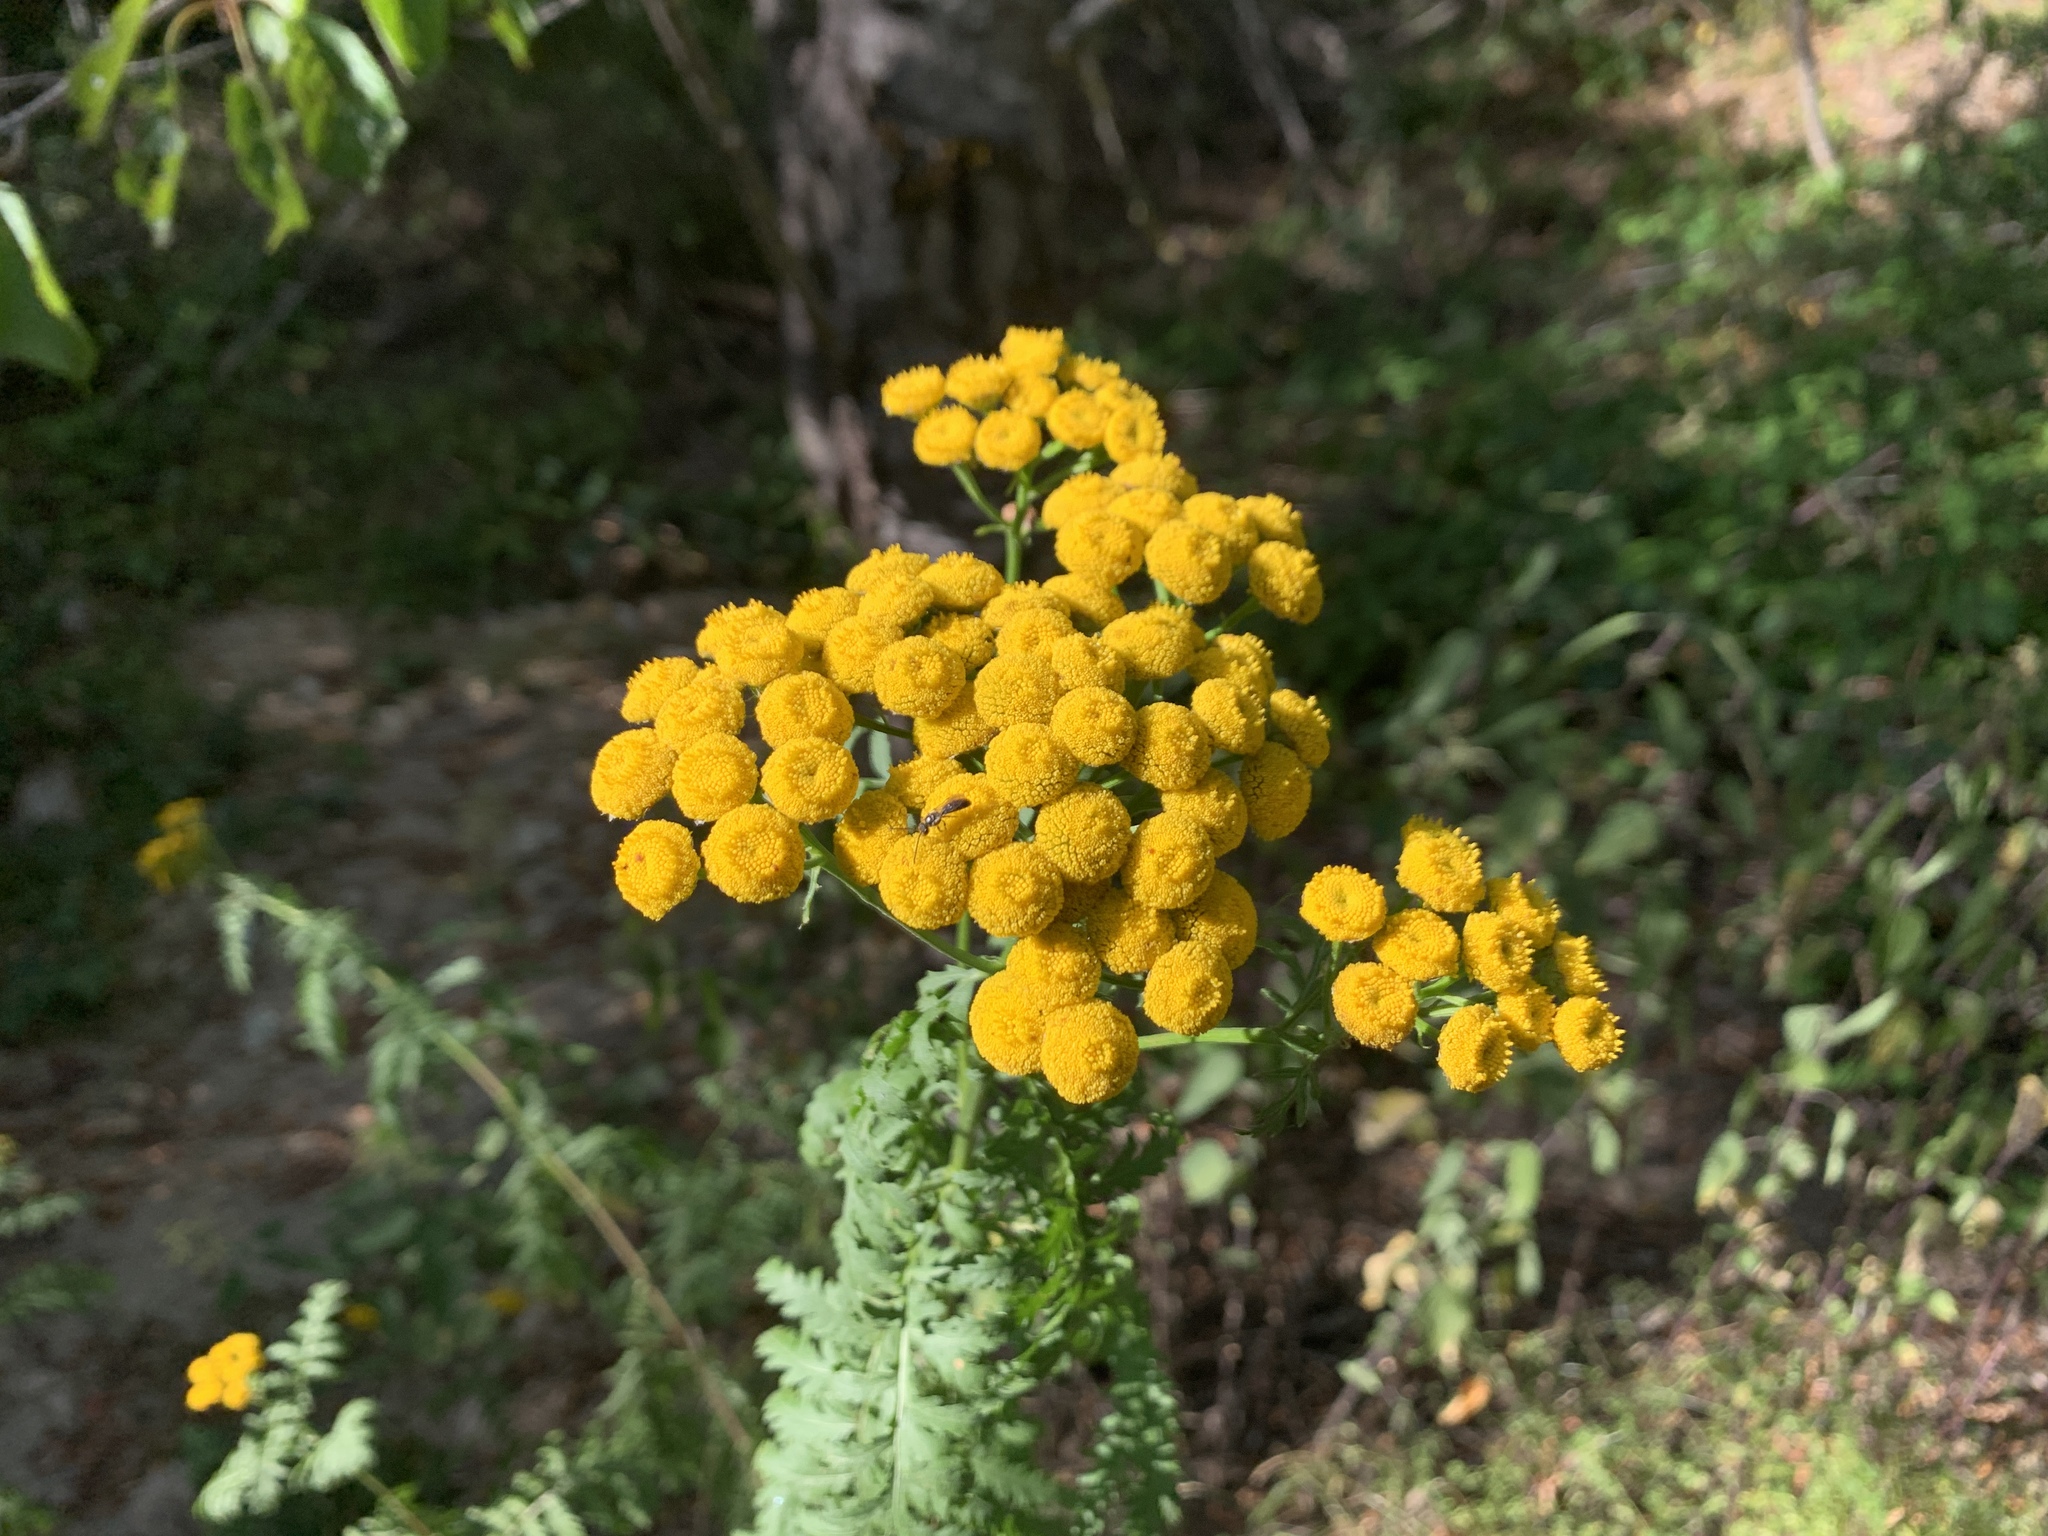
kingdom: Plantae
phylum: Tracheophyta
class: Magnoliopsida
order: Asterales
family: Asteraceae
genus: Tanacetum
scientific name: Tanacetum vulgare
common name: Common tansy
